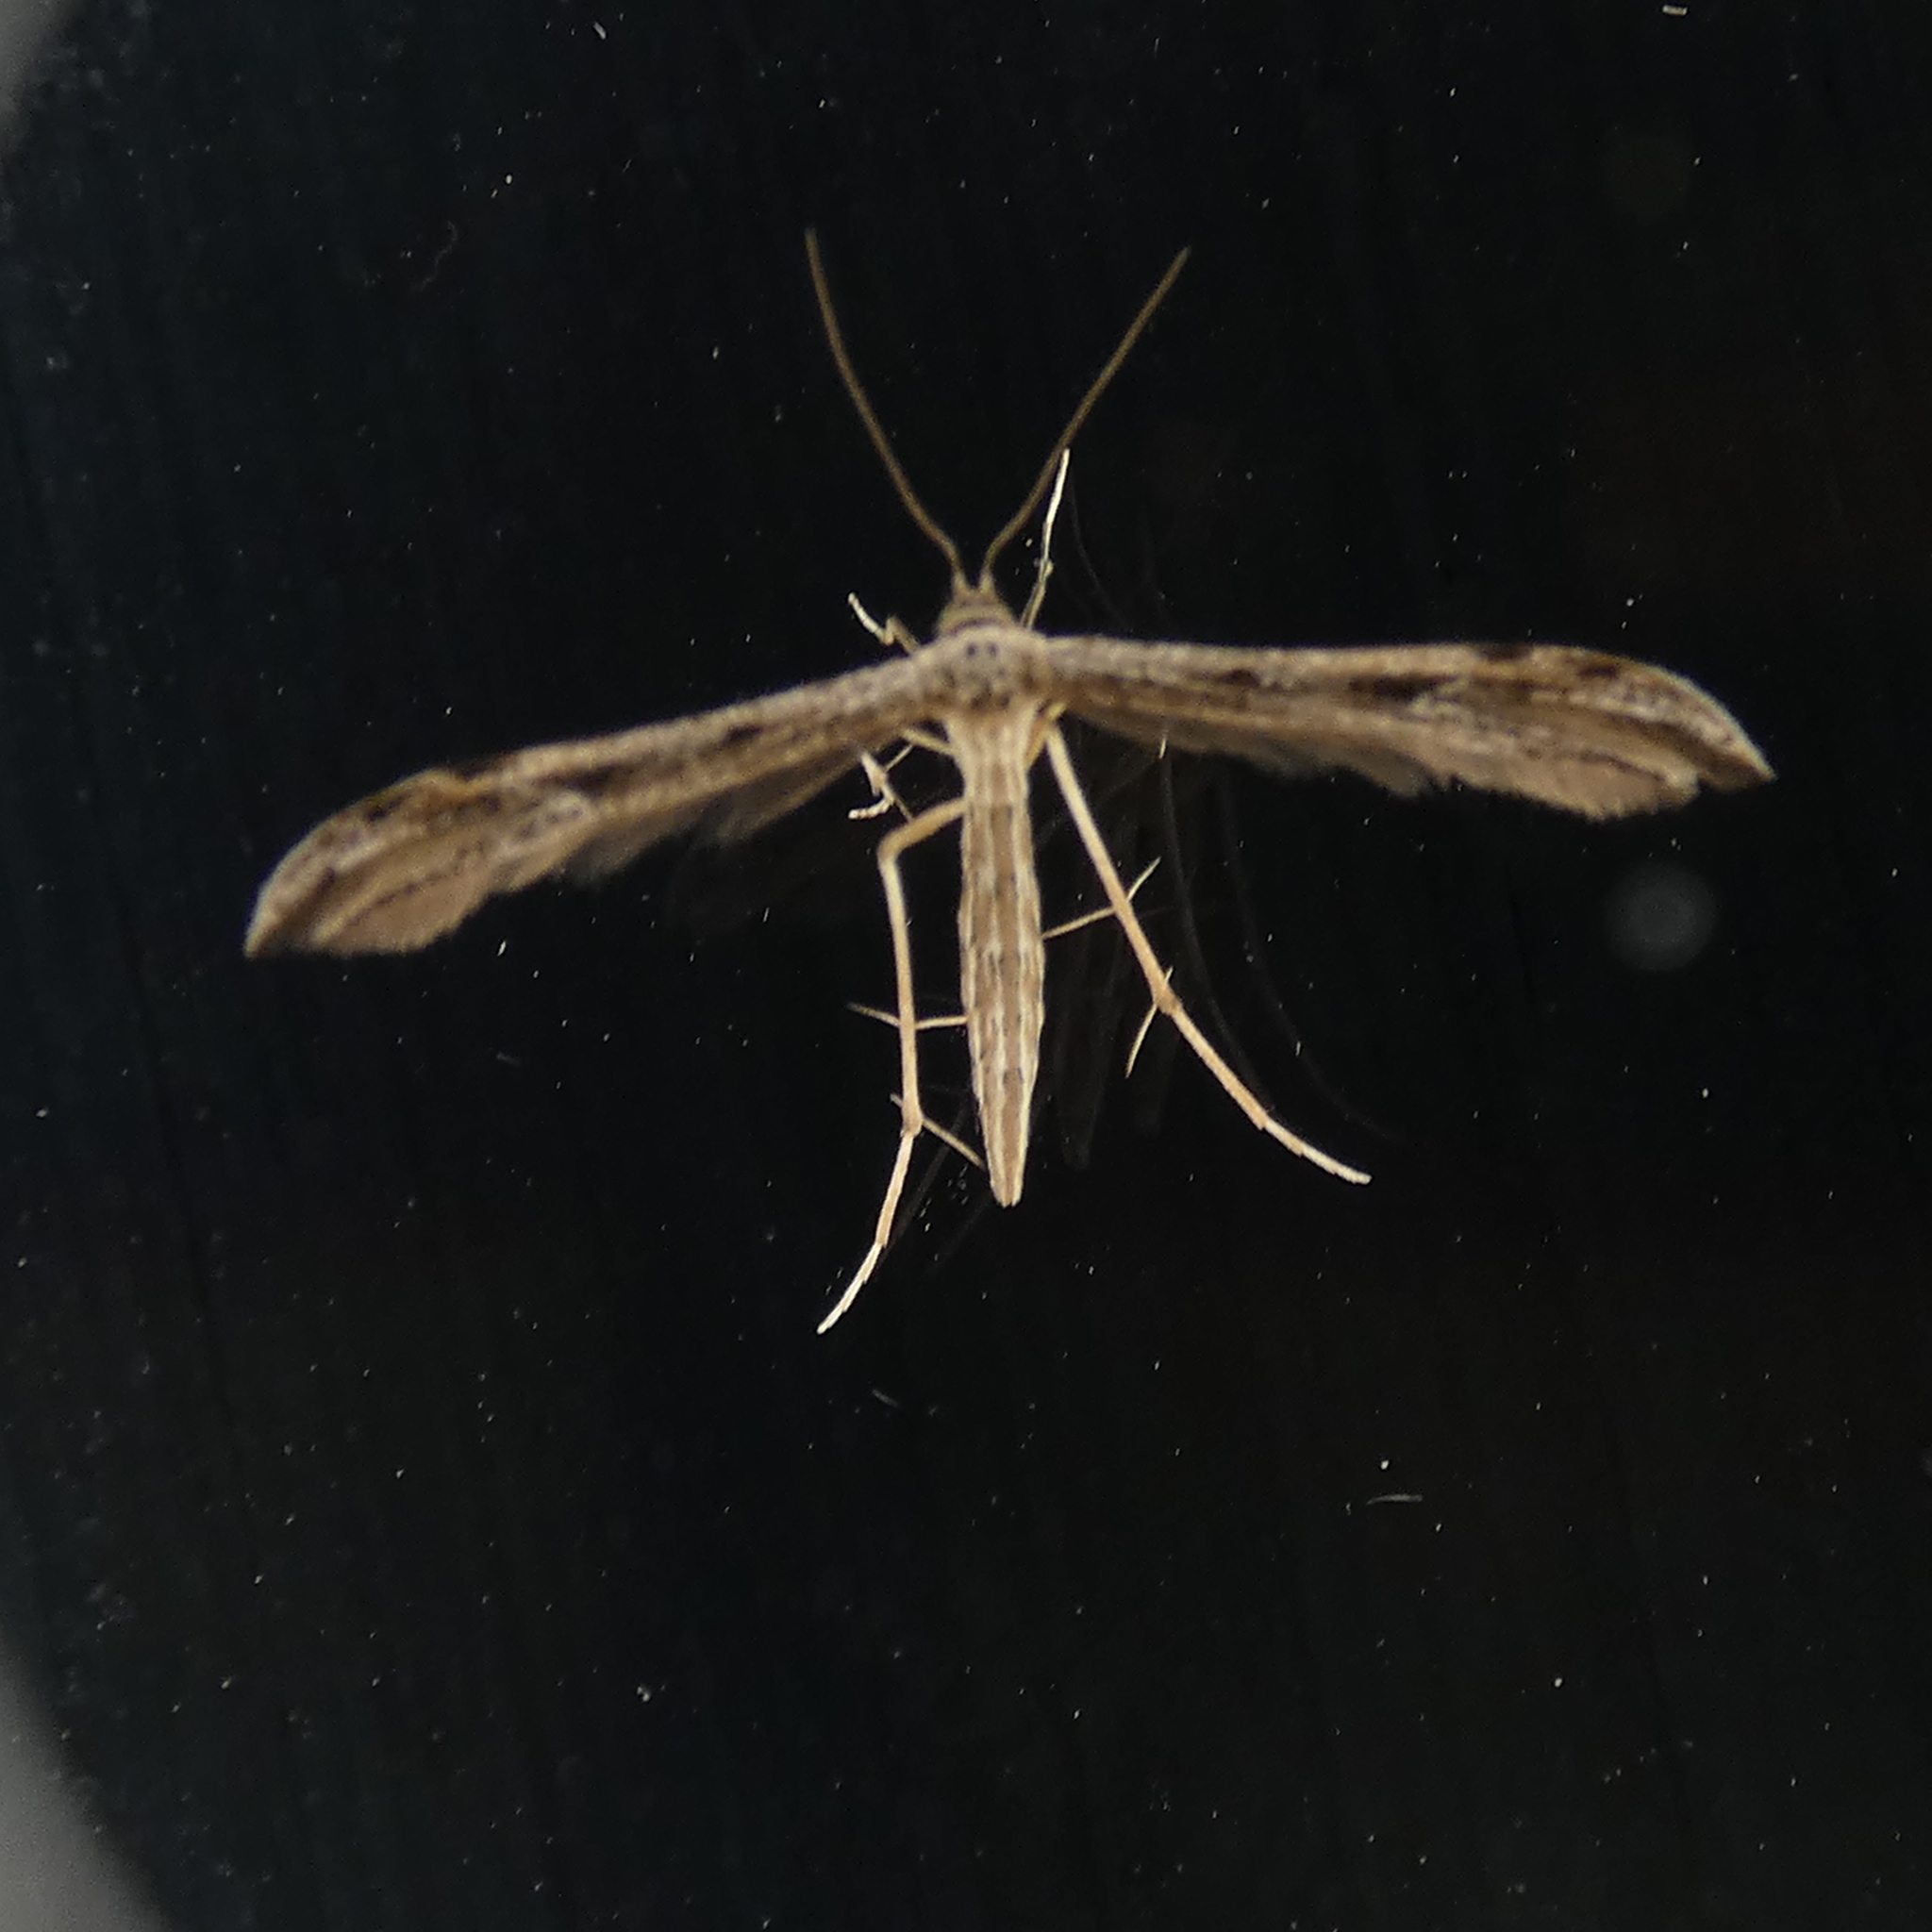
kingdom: Animalia
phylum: Arthropoda
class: Insecta
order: Lepidoptera
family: Pterophoridae
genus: Pselnophorus
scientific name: Pselnophorus belfragei
